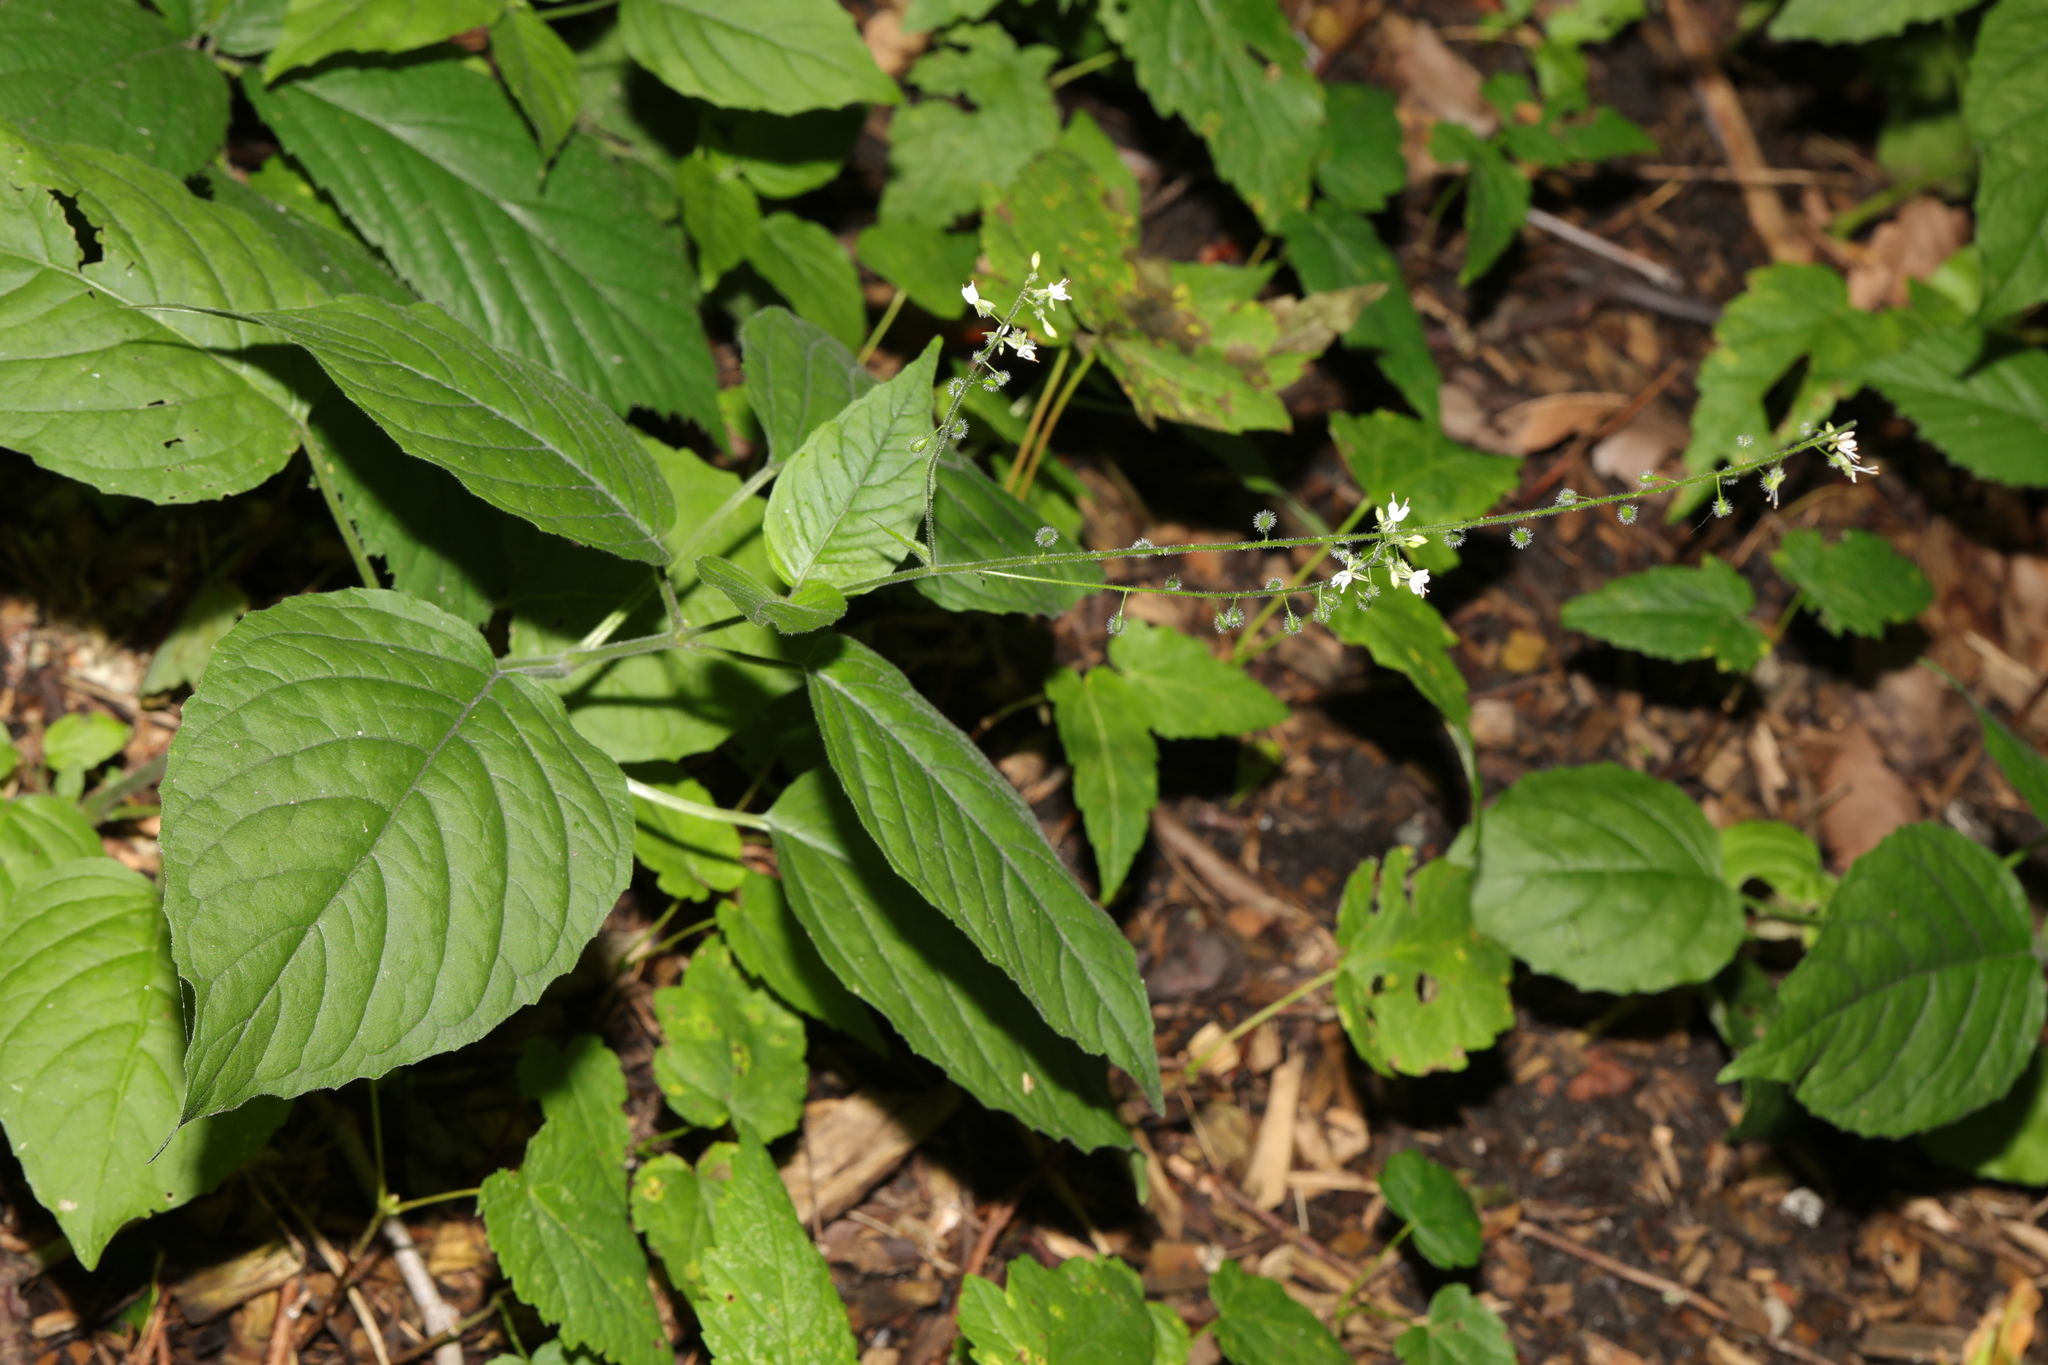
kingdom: Plantae
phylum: Tracheophyta
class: Magnoliopsida
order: Myrtales
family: Onagraceae
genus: Circaea
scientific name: Circaea lutetiana
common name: Enchanter's-nightshade
